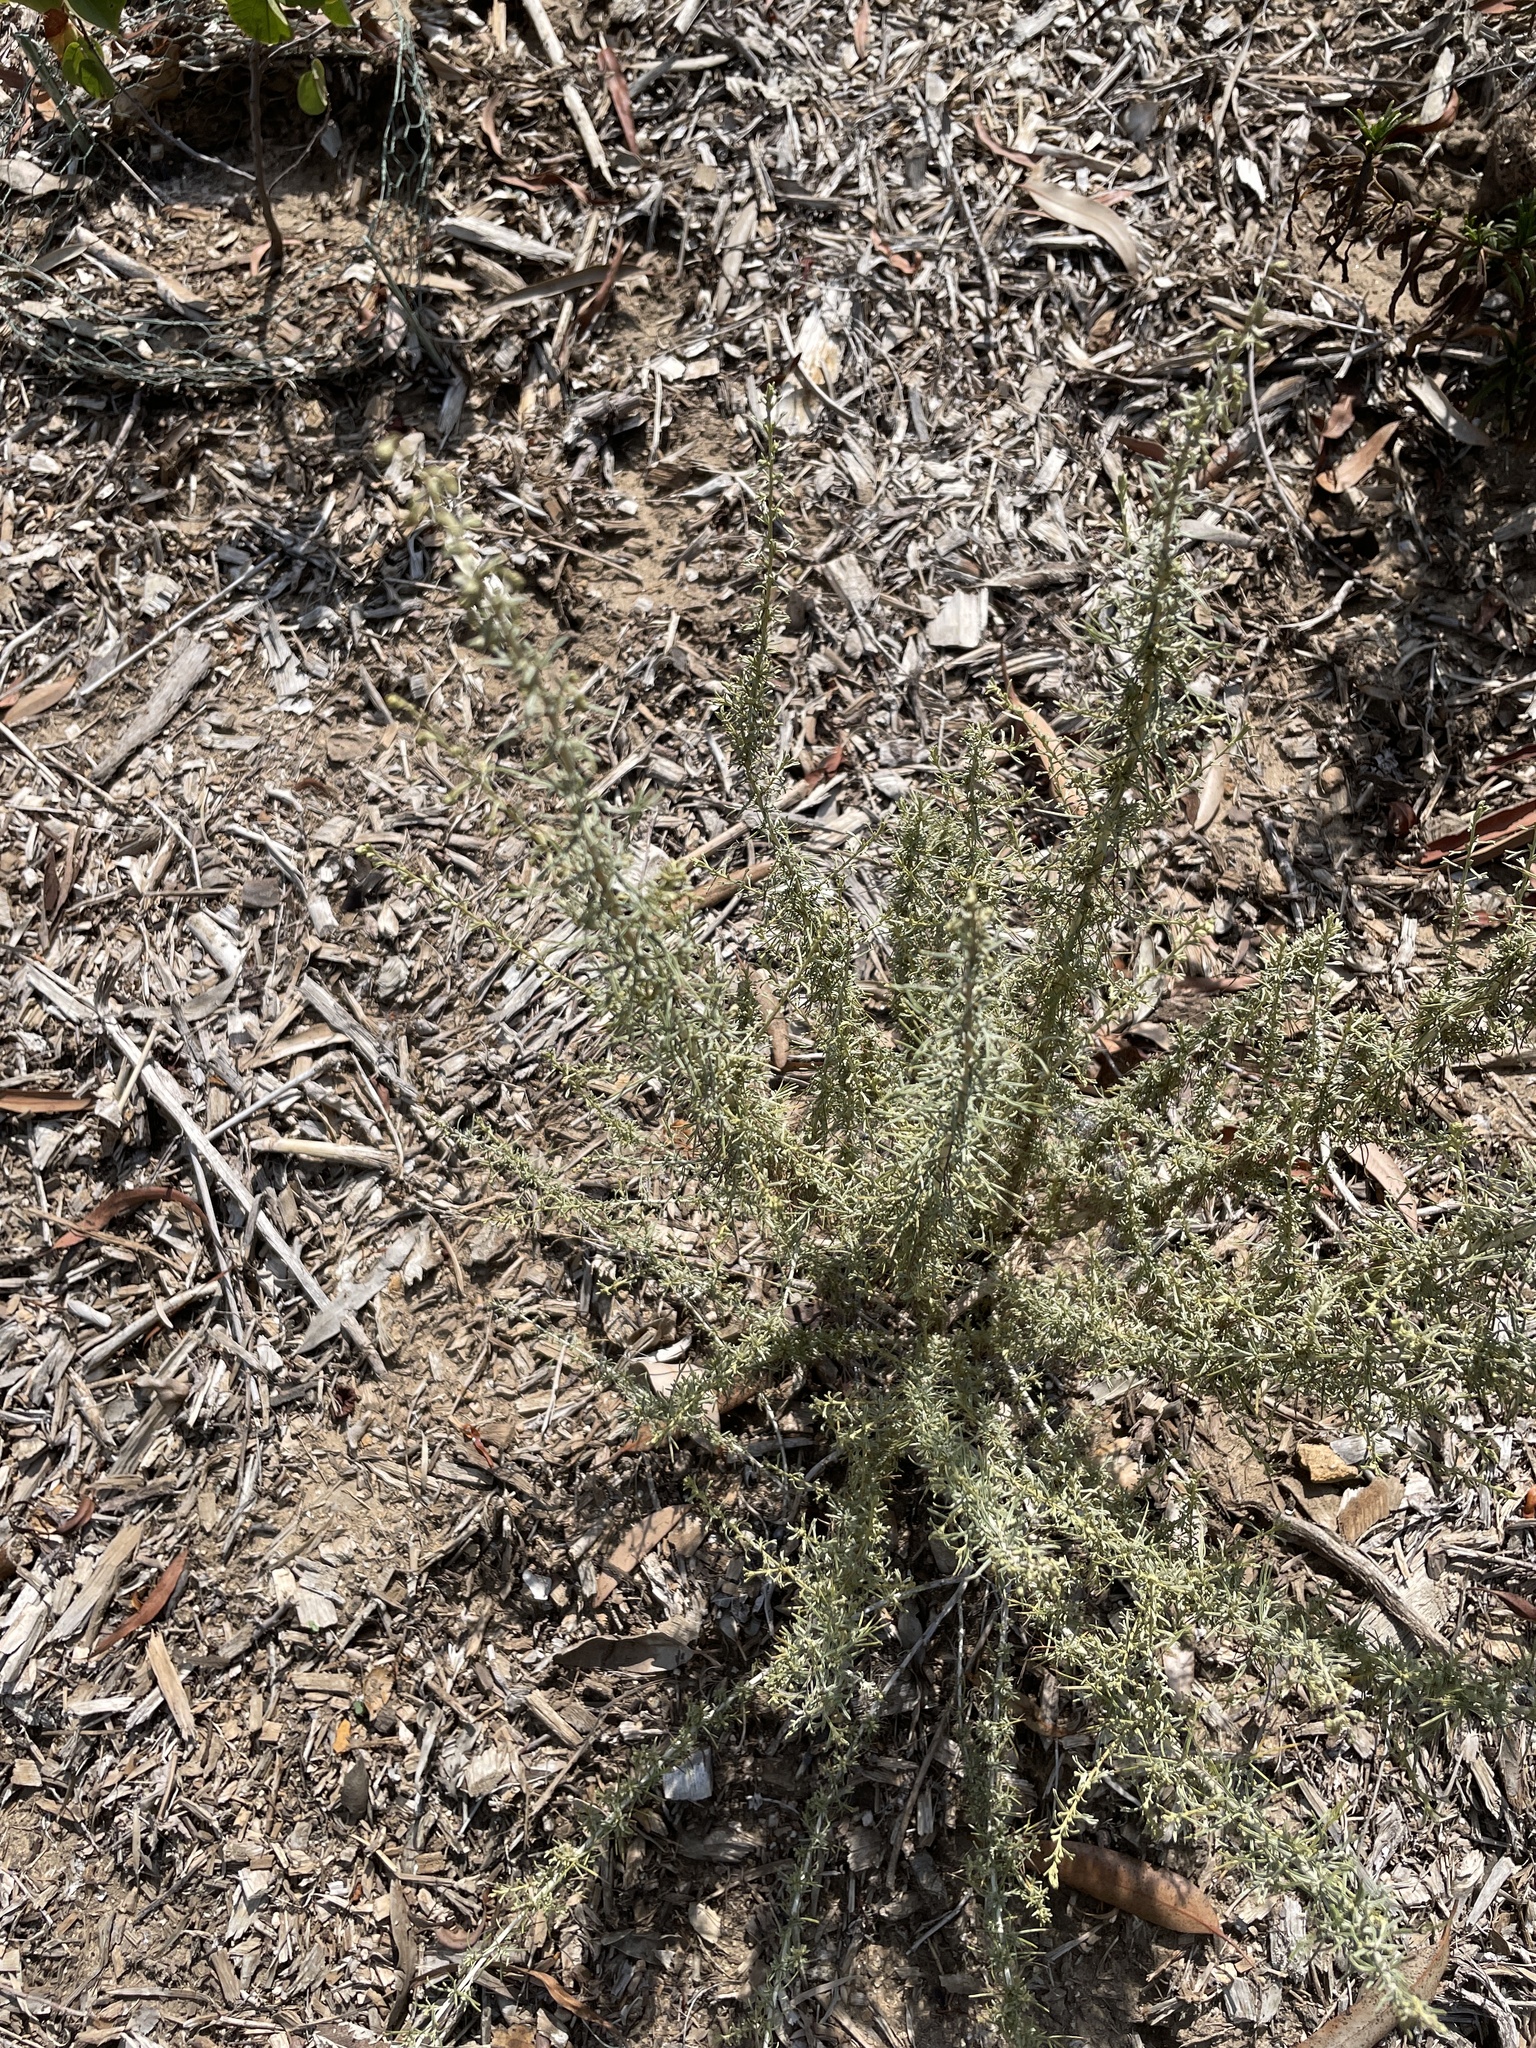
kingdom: Plantae
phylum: Tracheophyta
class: Magnoliopsida
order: Asterales
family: Asteraceae
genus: Artemisia
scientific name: Artemisia californica
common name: California sagebrush
